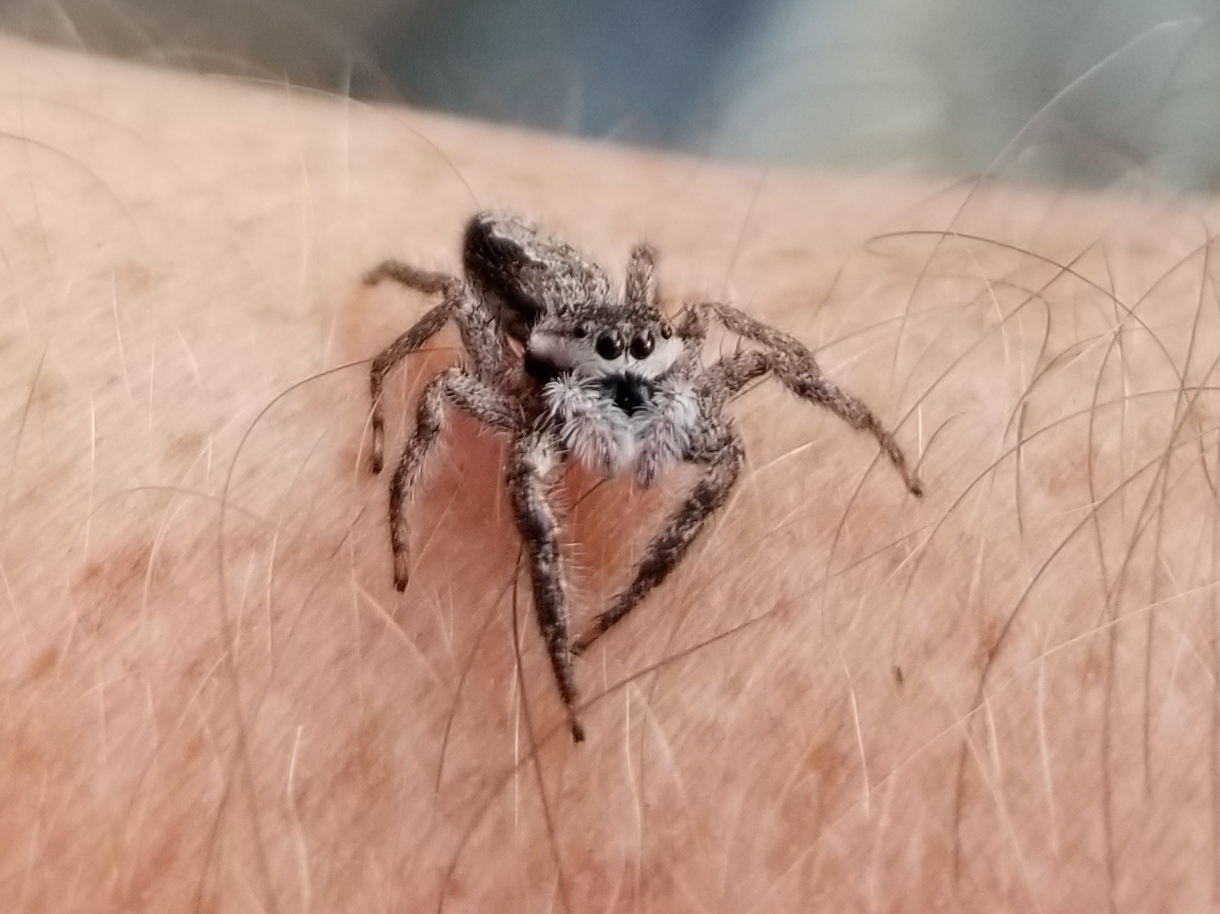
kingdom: Animalia
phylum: Arthropoda
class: Arachnida
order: Araneae
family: Salticidae
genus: Platycryptus
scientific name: Platycryptus undatus
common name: Tan jumping spider
